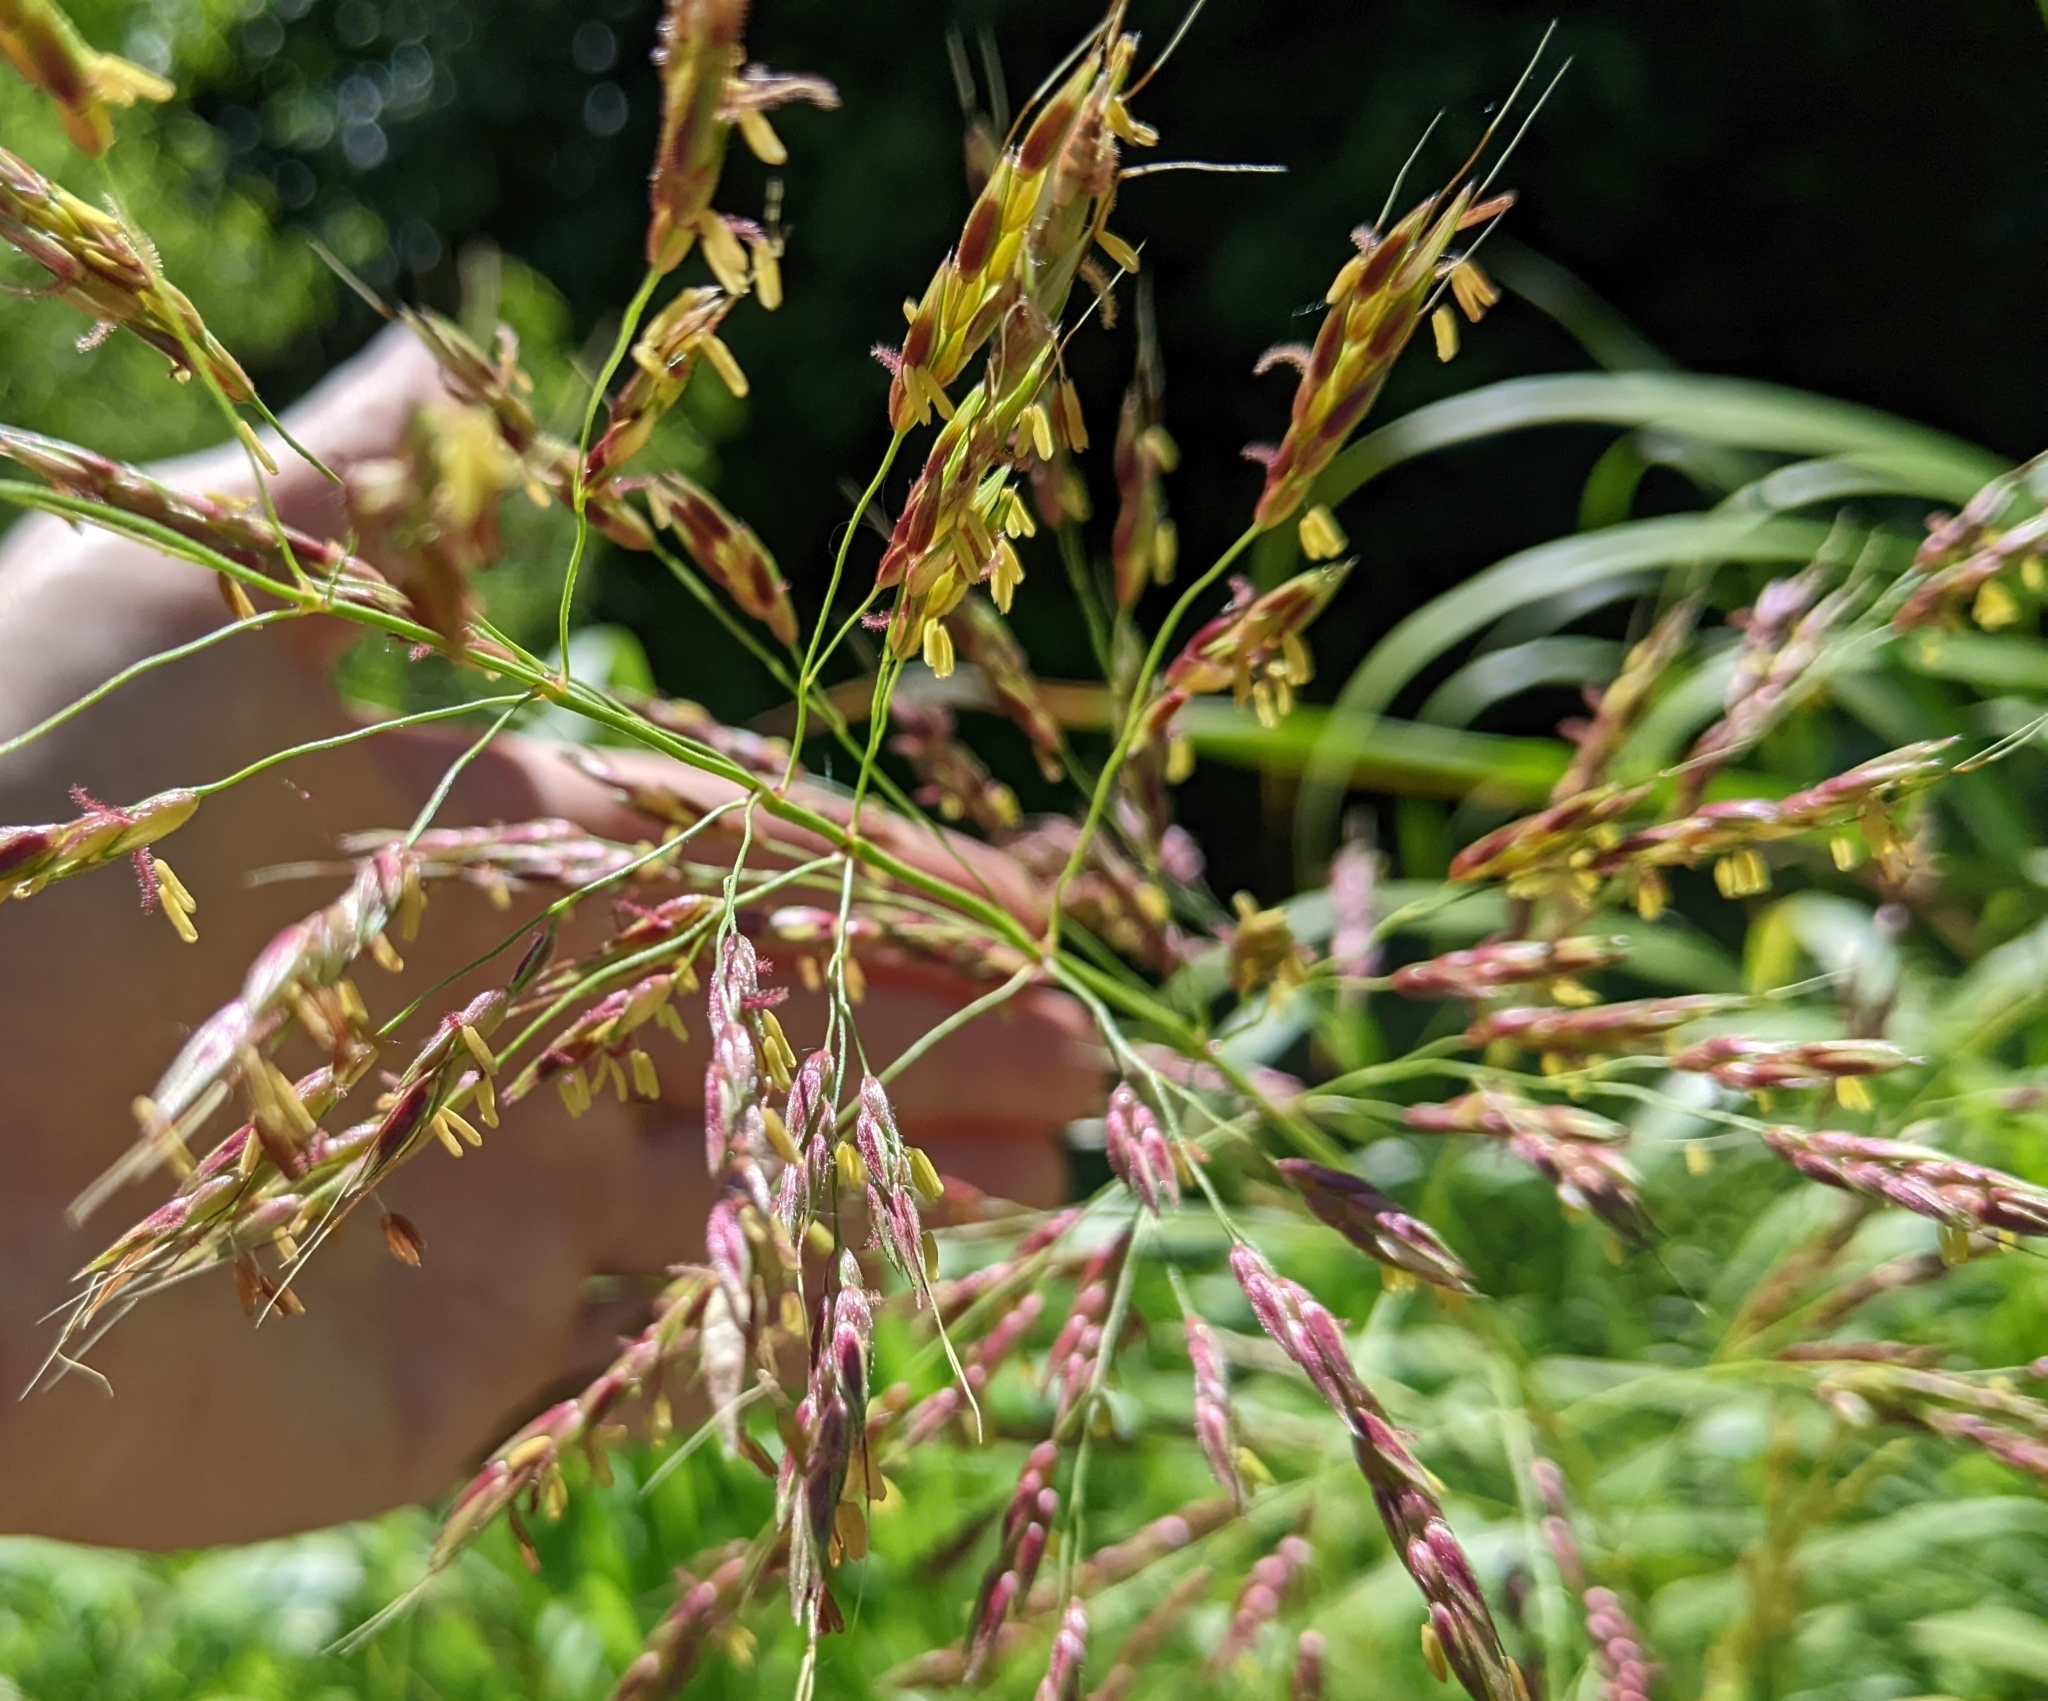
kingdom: Plantae
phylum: Tracheophyta
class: Liliopsida
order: Poales
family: Poaceae
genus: Sorghum
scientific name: Sorghum halepense
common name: Johnson-grass
